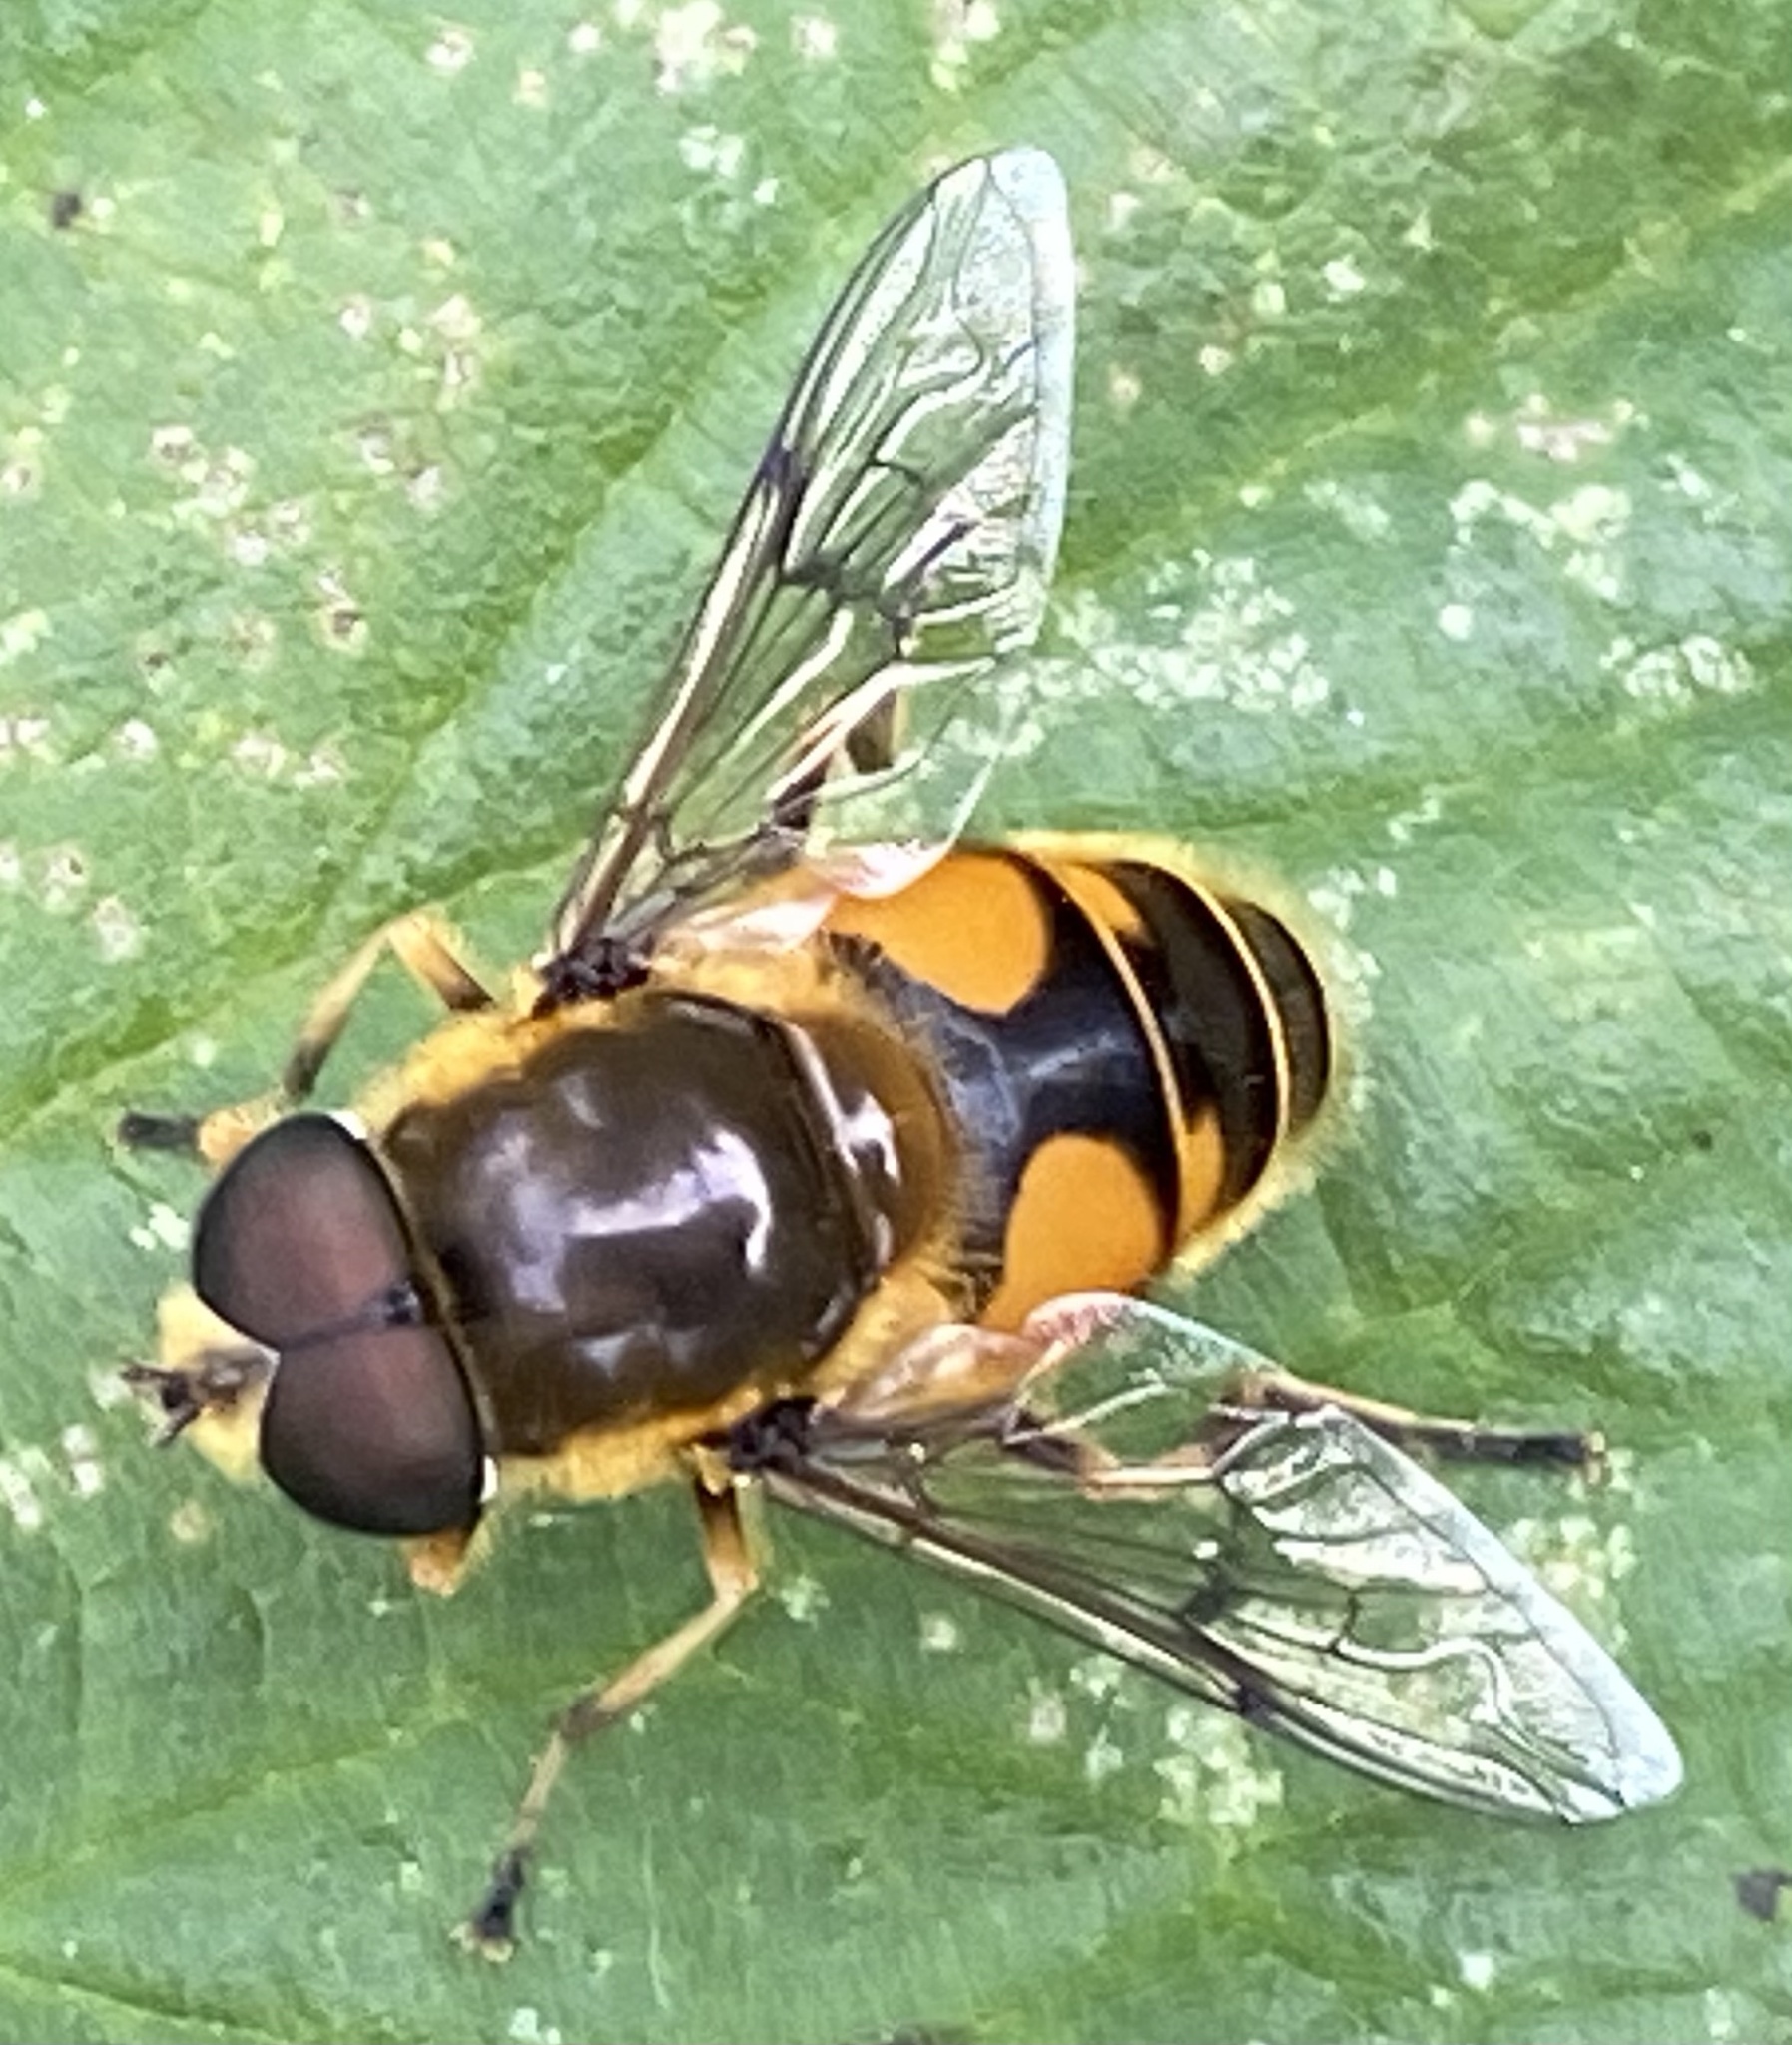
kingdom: Animalia
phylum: Arthropoda
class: Insecta
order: Diptera
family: Syrphidae
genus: Cheilosia
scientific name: Cheilosia morio
